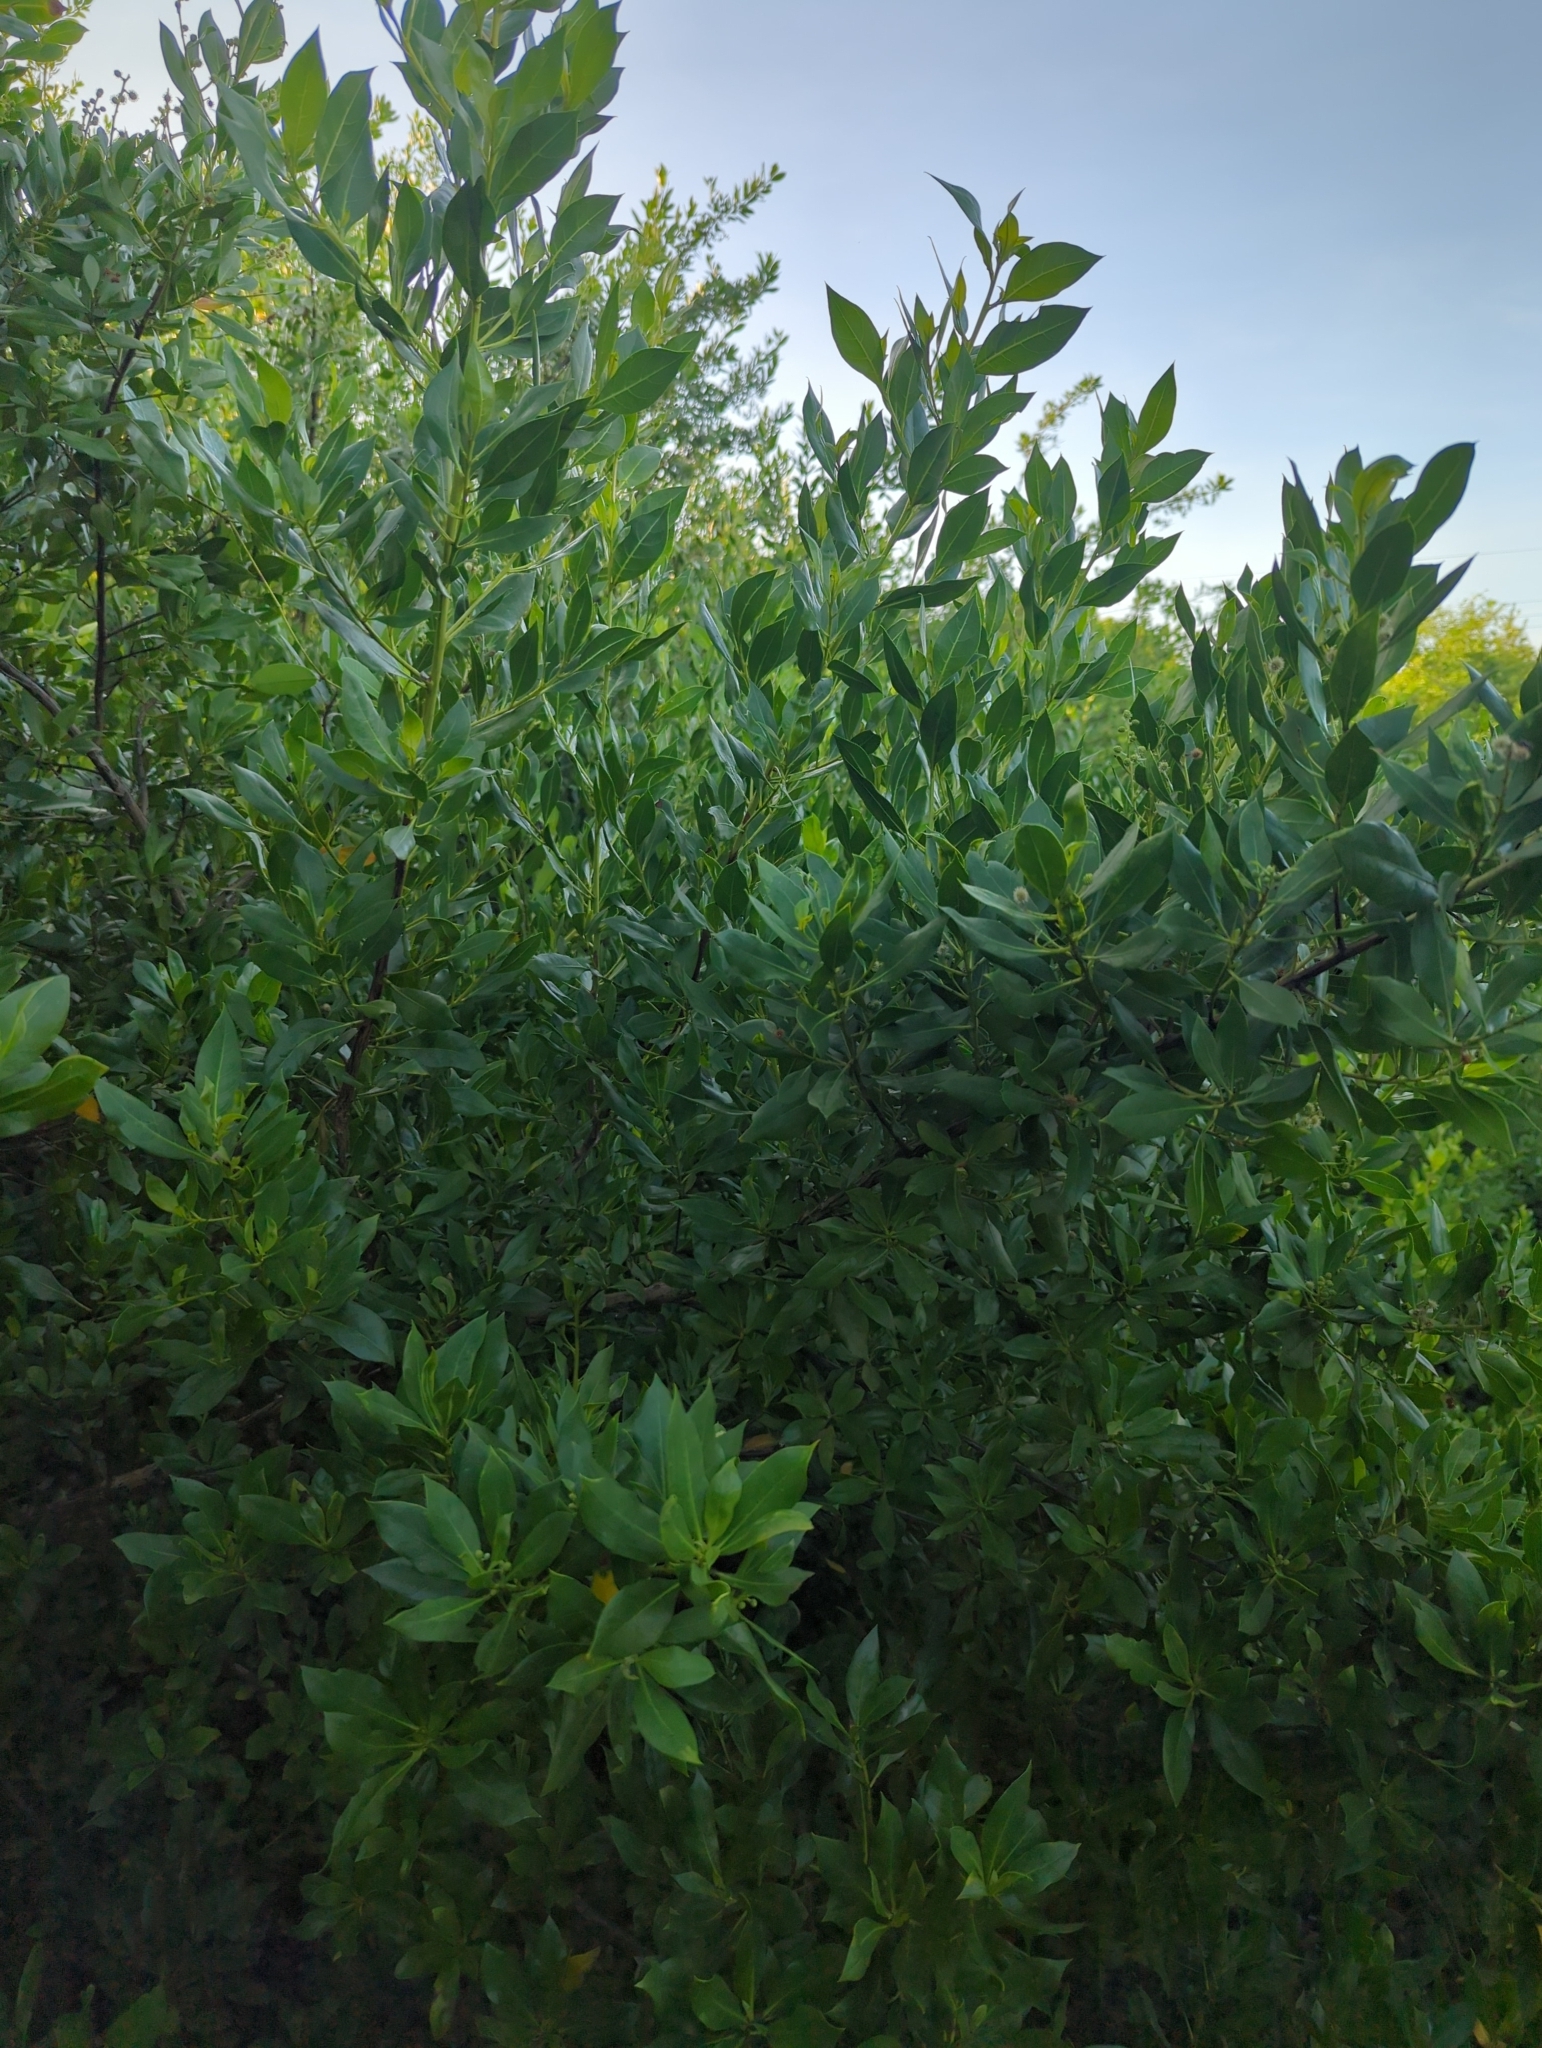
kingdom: Plantae
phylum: Tracheophyta
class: Magnoliopsida
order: Myrtales
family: Combretaceae
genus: Conocarpus
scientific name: Conocarpus erectus
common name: Button mangrove
